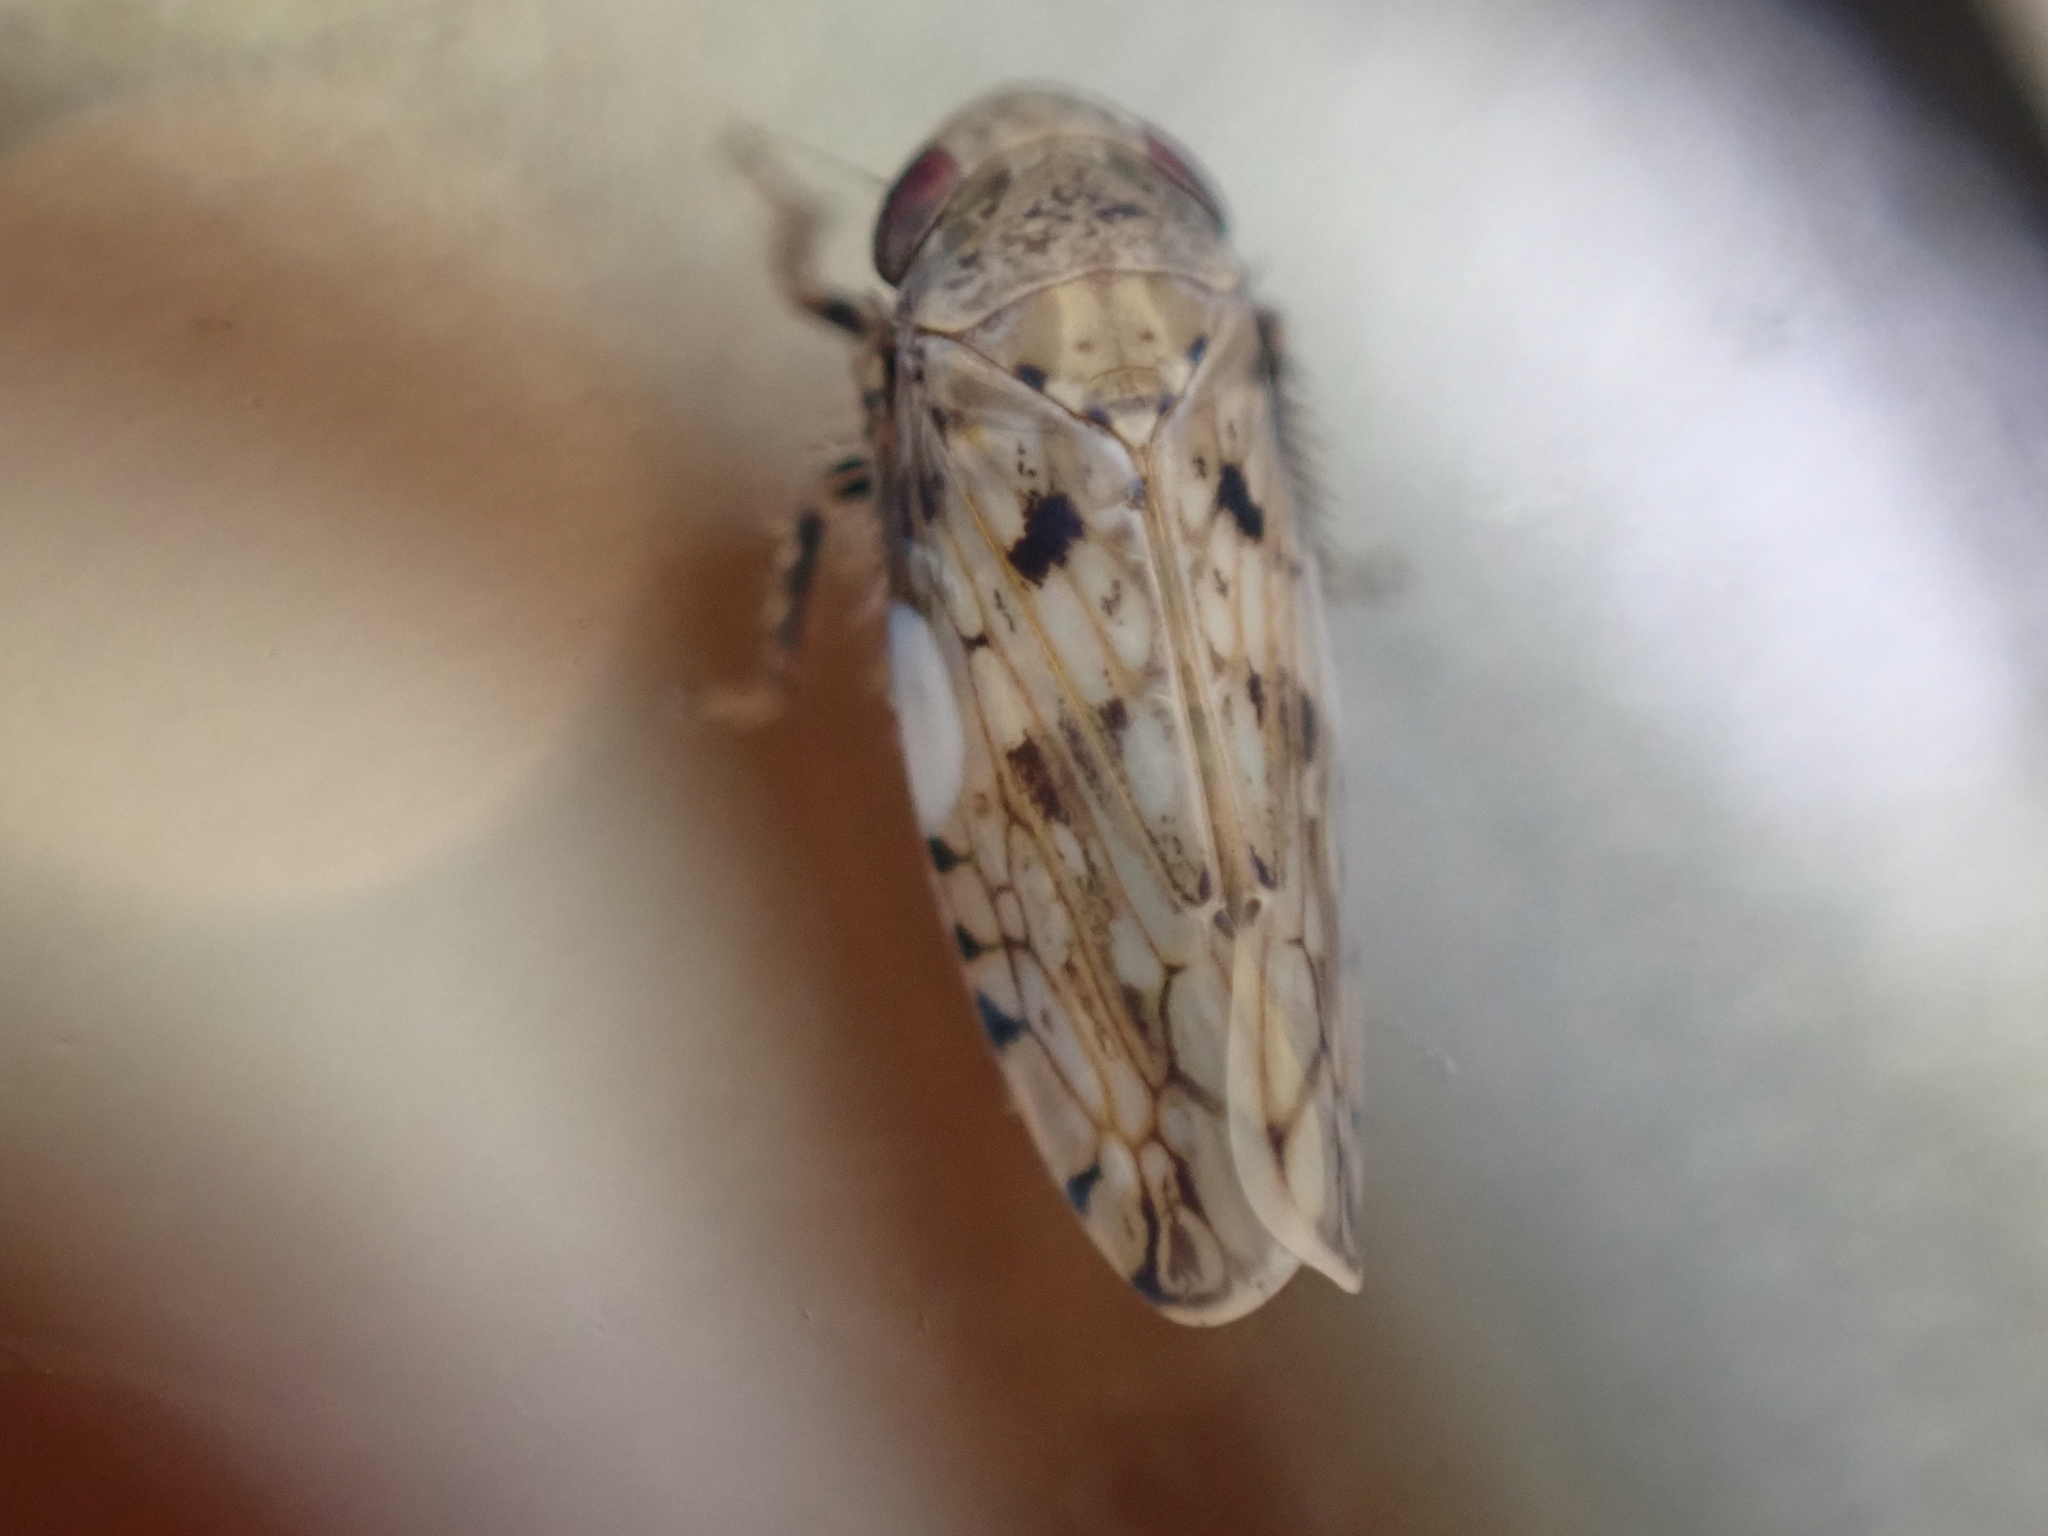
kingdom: Animalia
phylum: Arthropoda
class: Insecta
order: Hemiptera
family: Cicadellidae
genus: Menosoma
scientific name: Menosoma cinctum
